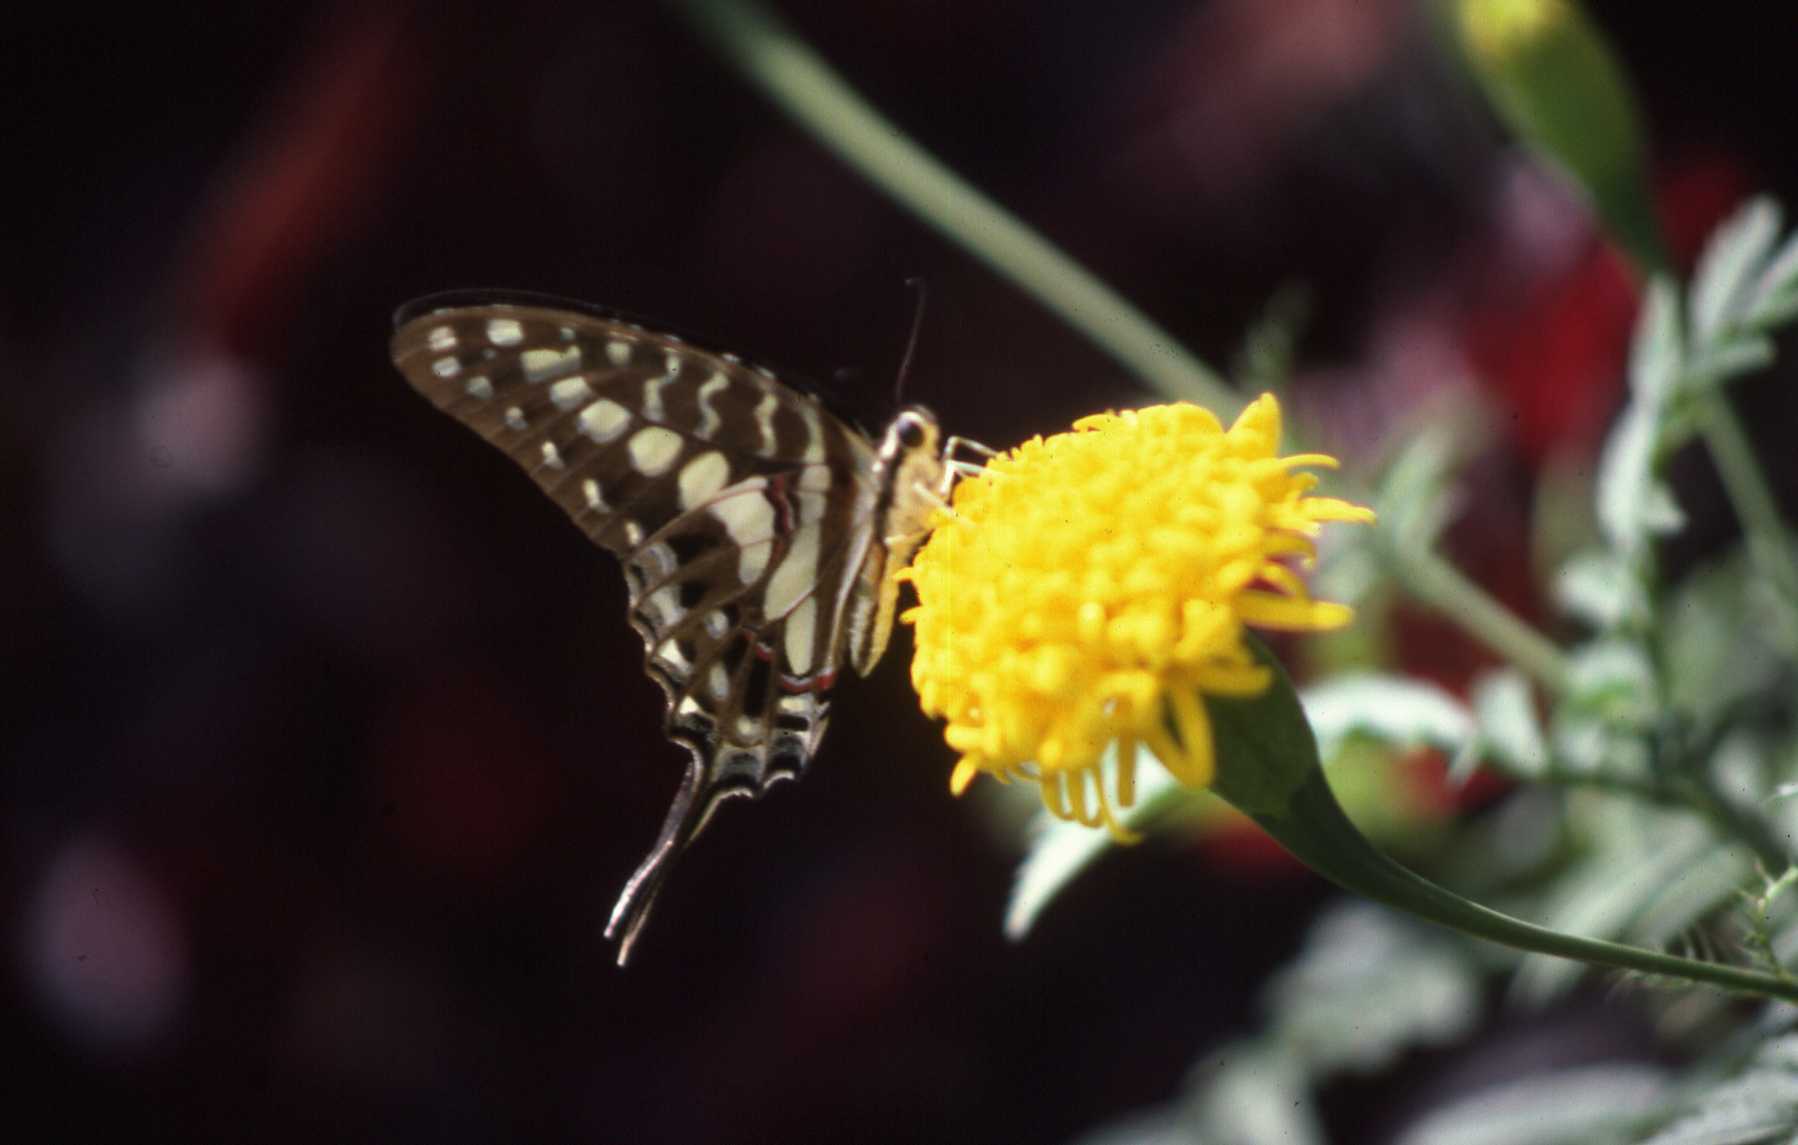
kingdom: Animalia
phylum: Arthropoda
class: Insecta
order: Lepidoptera
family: Papilionidae
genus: Graphium
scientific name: Graphium porthaon
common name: Coastal swordtail
